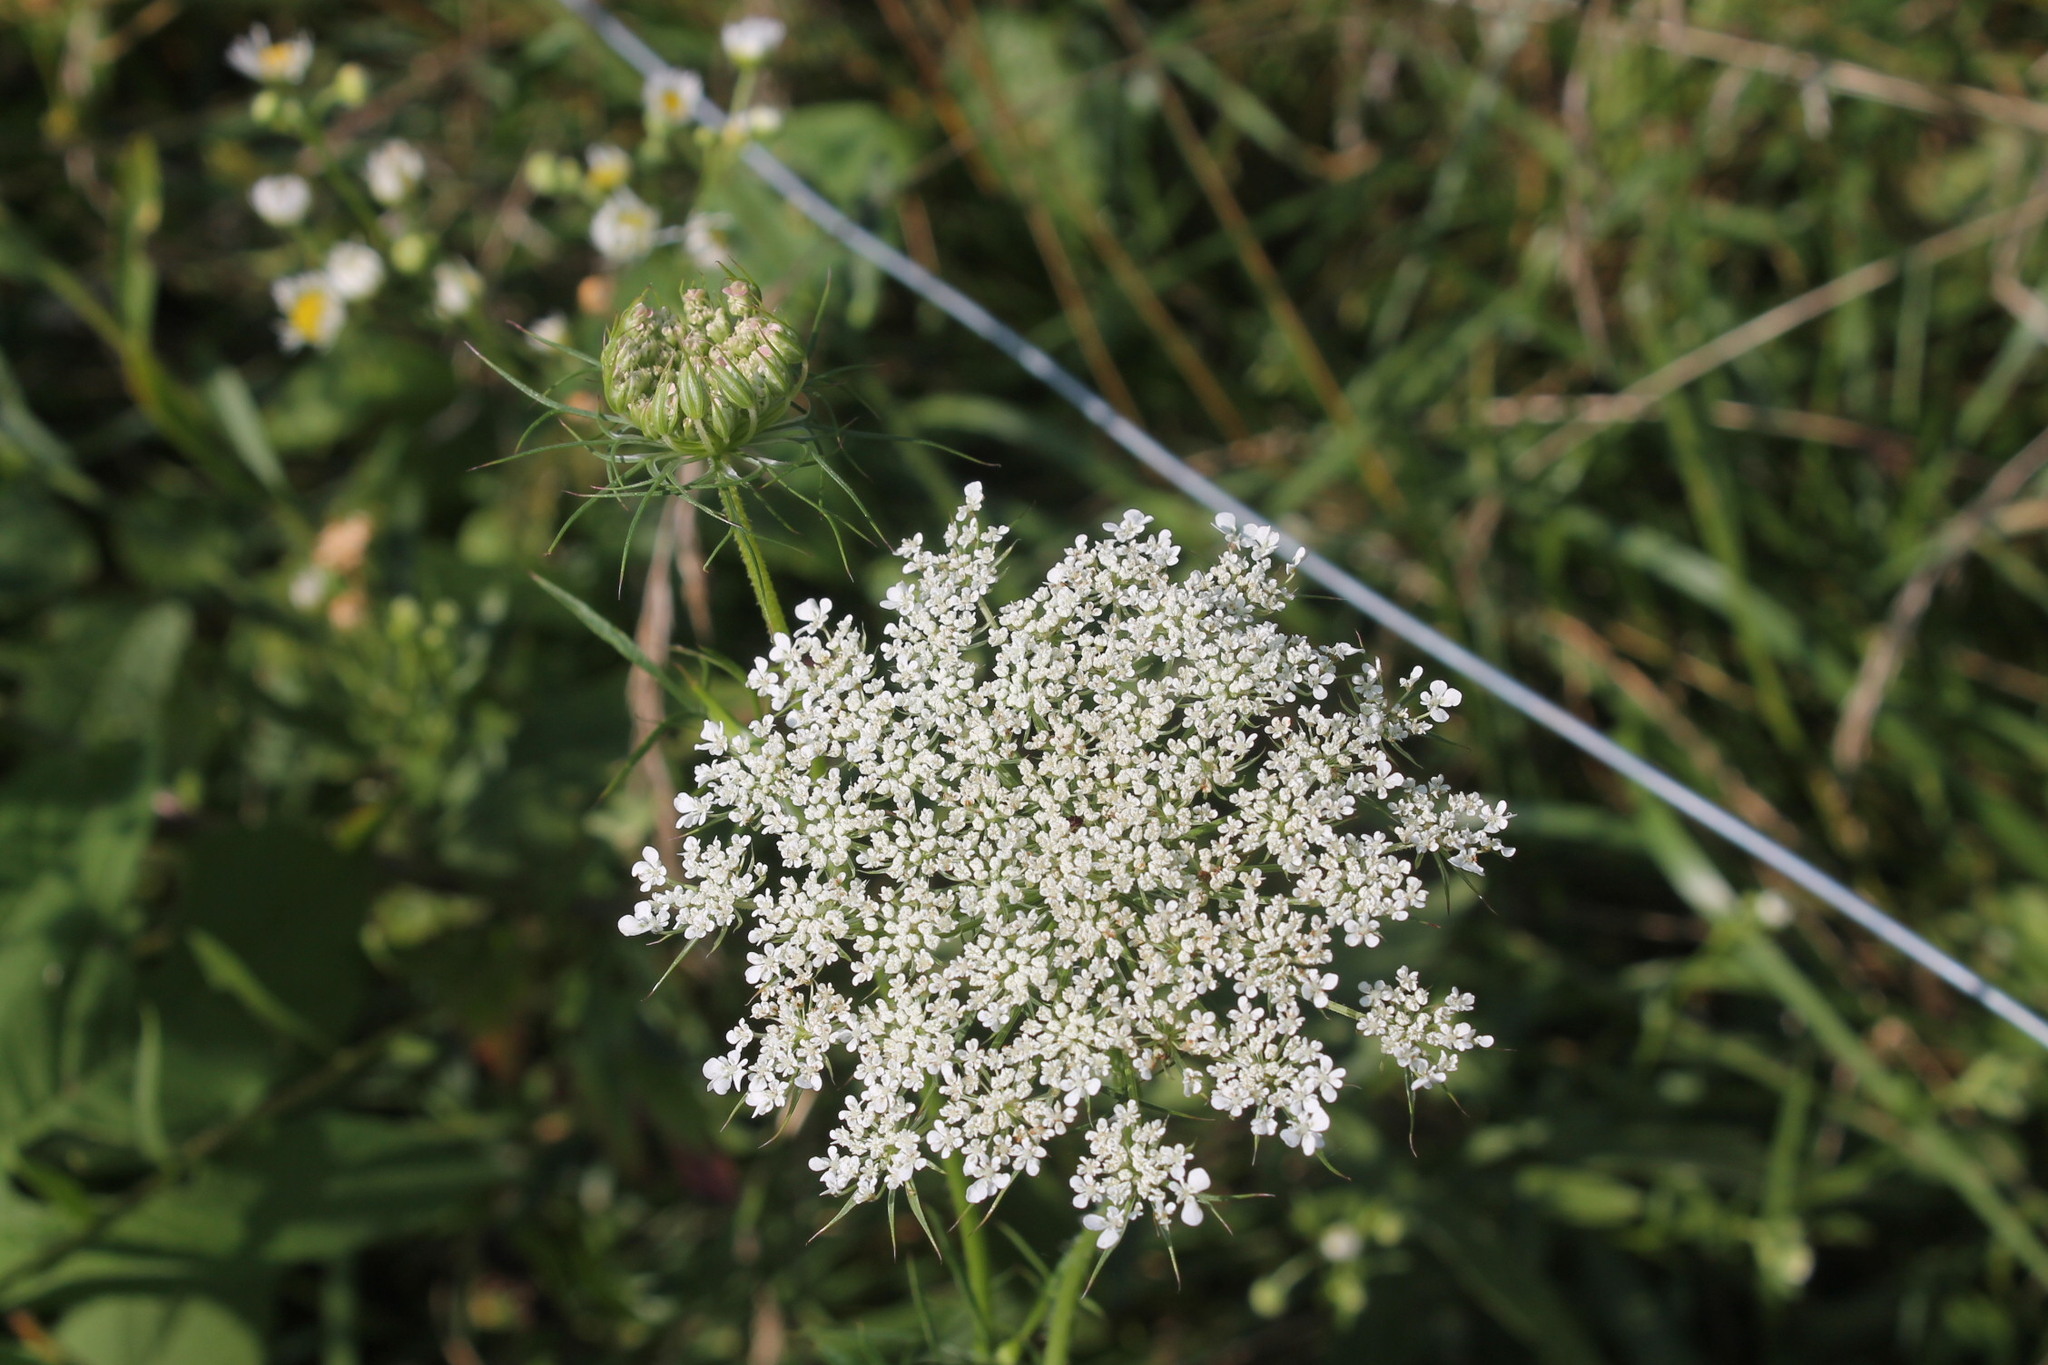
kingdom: Plantae
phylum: Tracheophyta
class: Magnoliopsida
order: Apiales
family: Apiaceae
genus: Daucus
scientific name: Daucus carota
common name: Wild carrot
